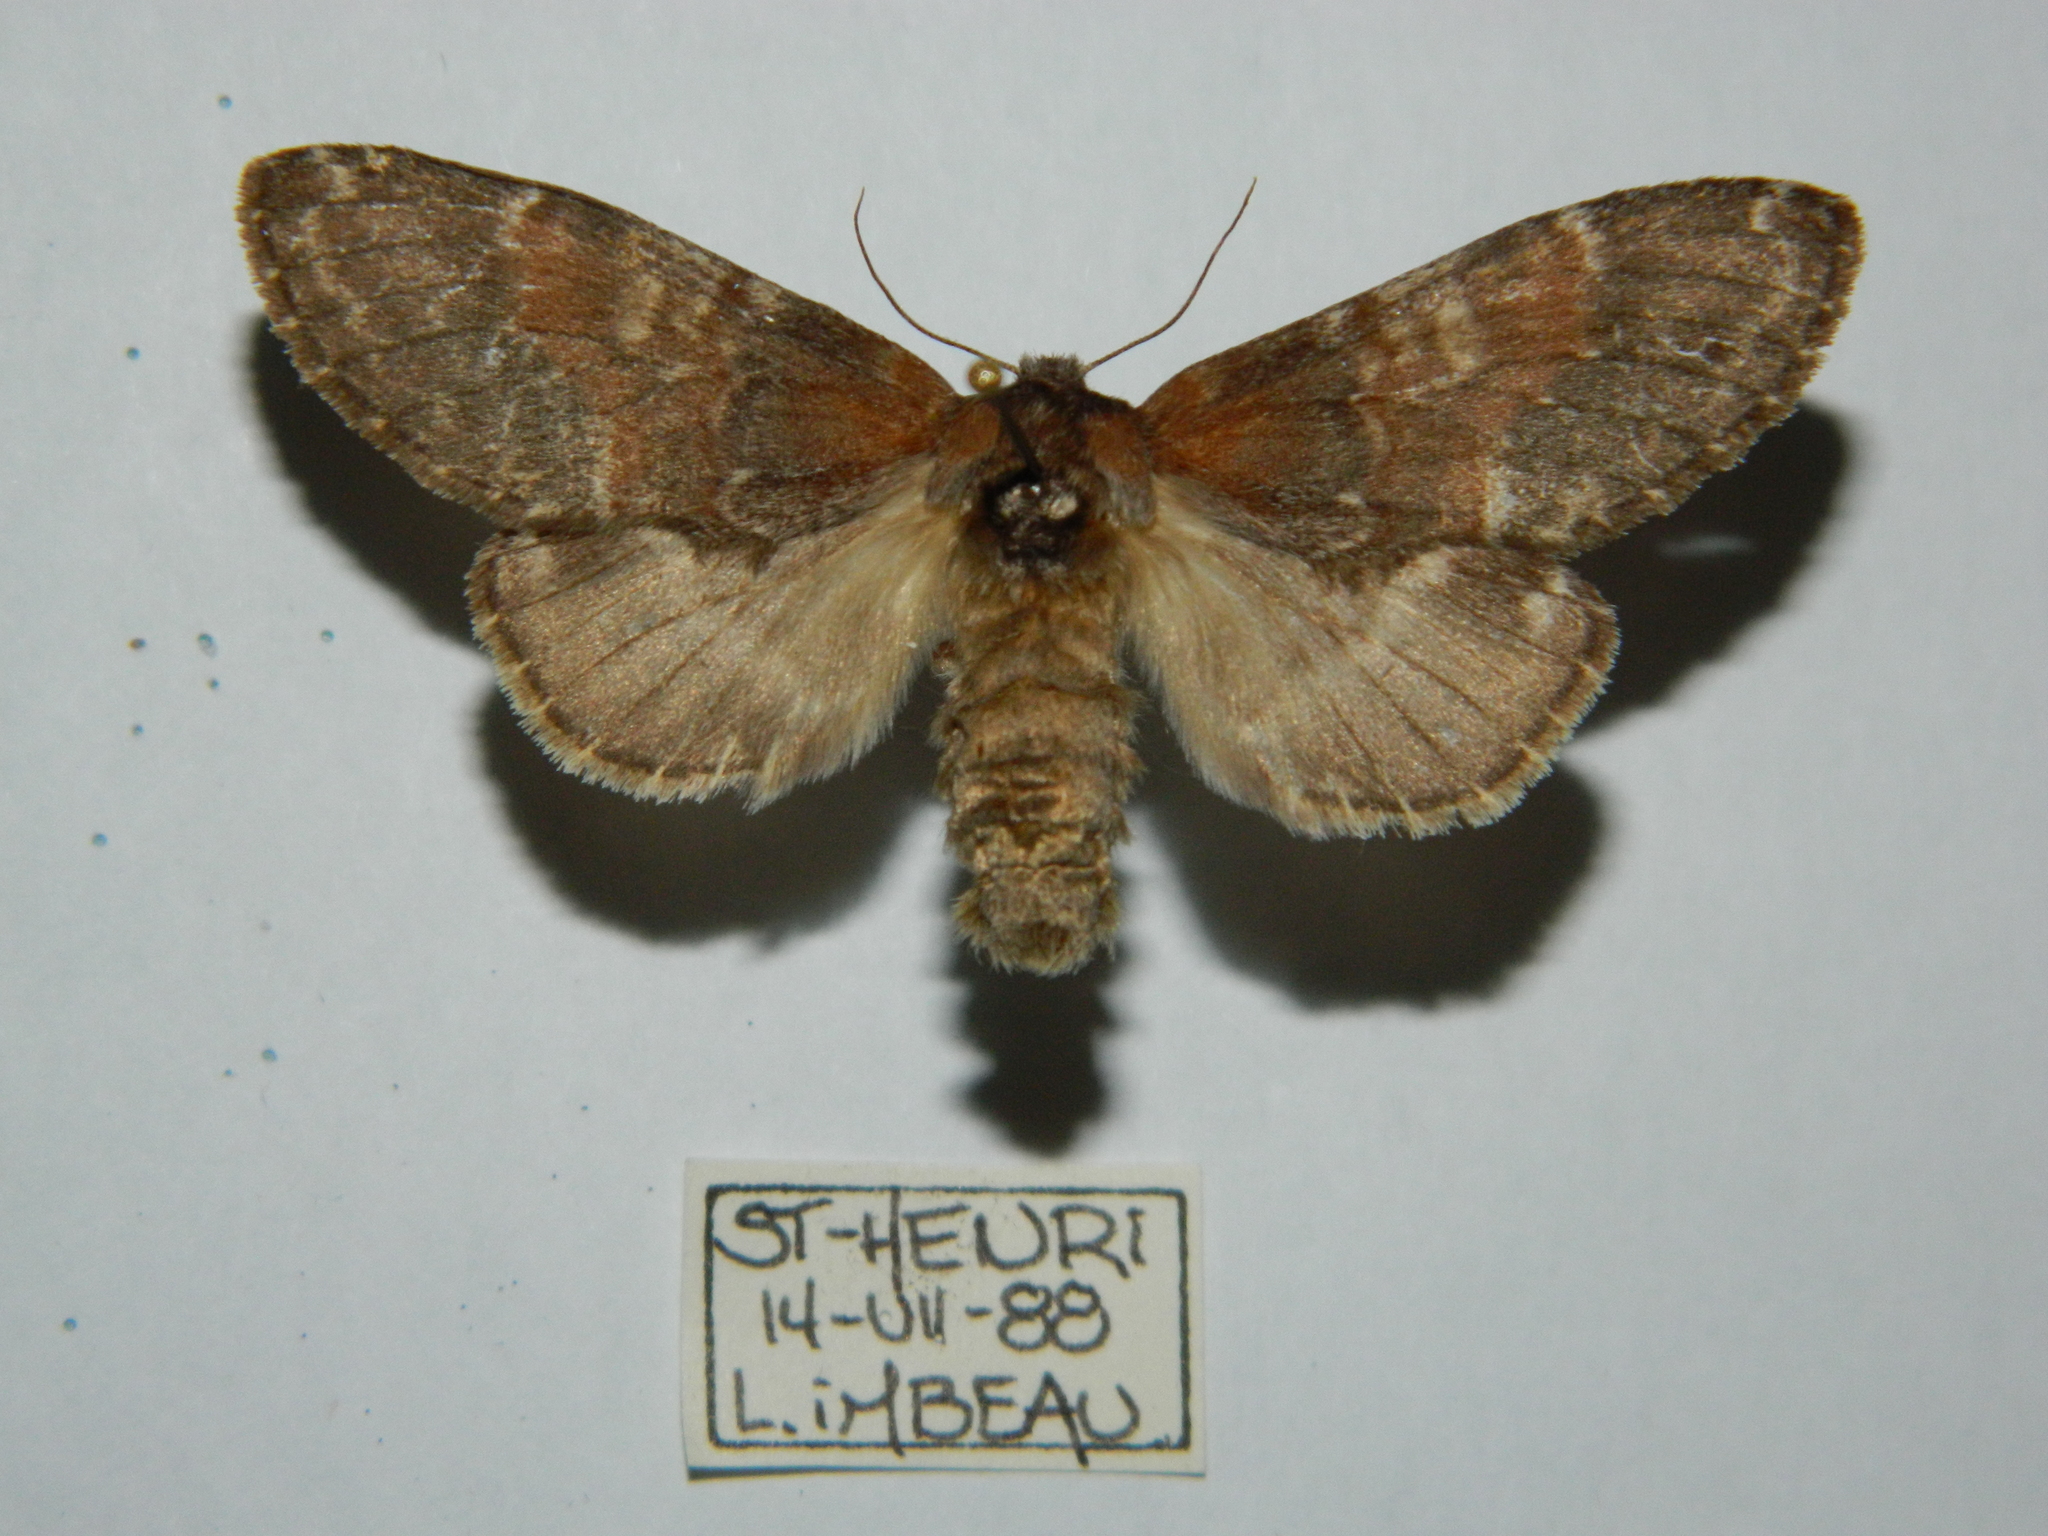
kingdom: Animalia
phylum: Arthropoda
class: Insecta
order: Lepidoptera
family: Notodontidae
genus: Peridea
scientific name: Peridea ferruginea
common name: Chocolate prominent
